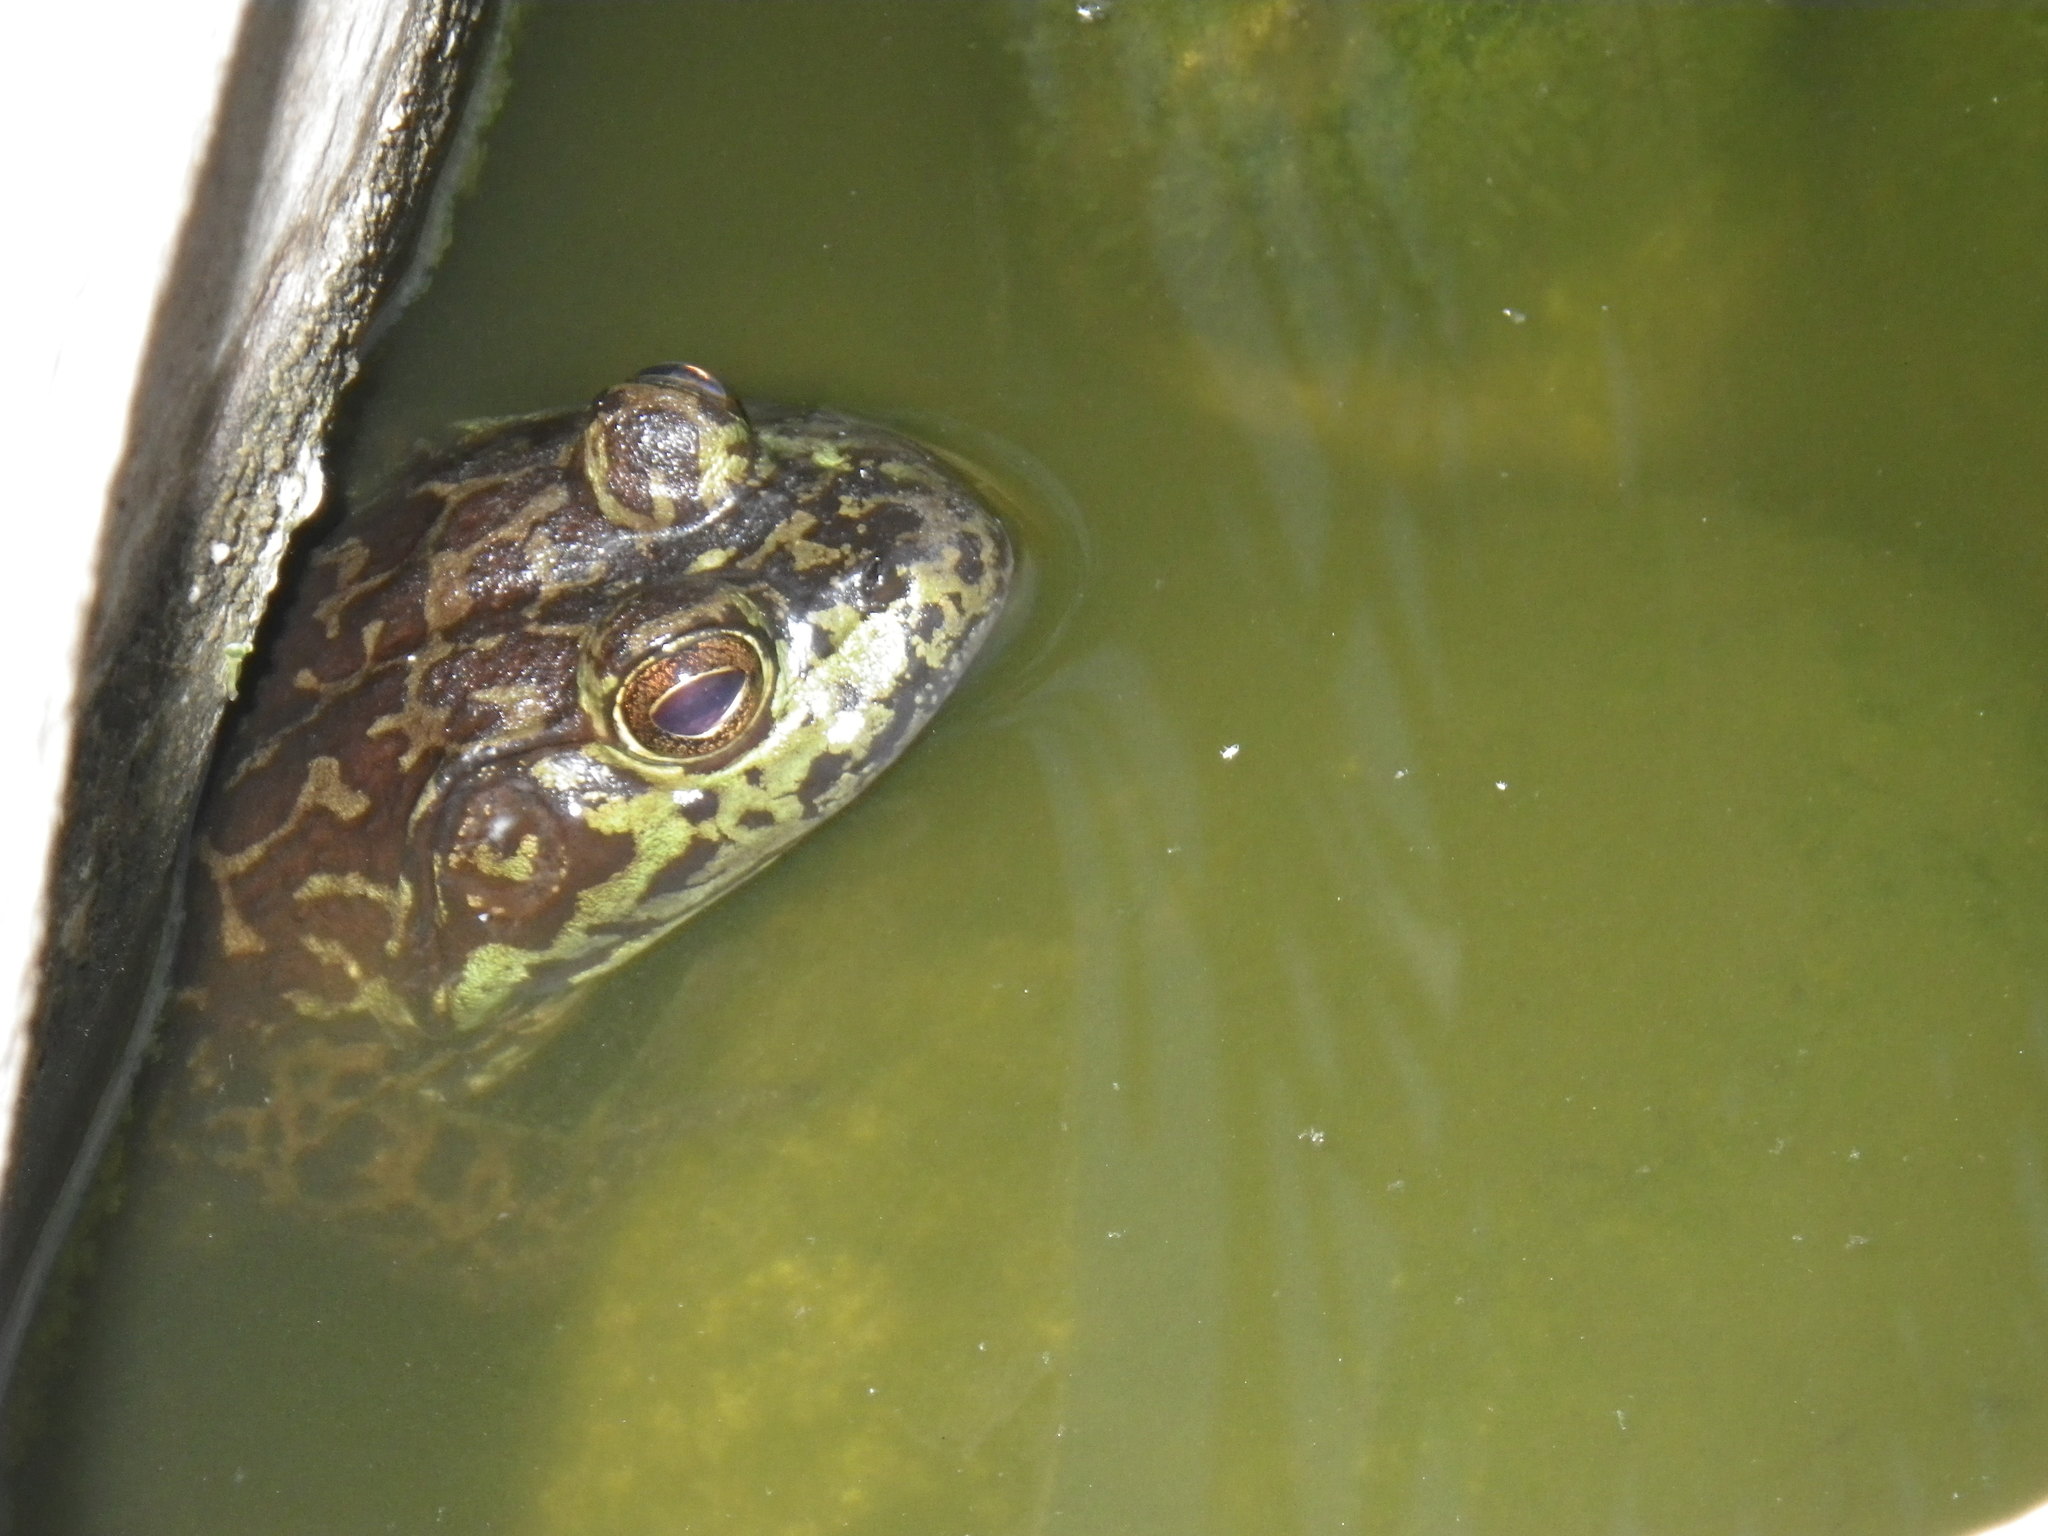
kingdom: Animalia
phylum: Chordata
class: Amphibia
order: Anura
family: Ranidae
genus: Lithobates
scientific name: Lithobates catesbeianus
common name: American bullfrog
